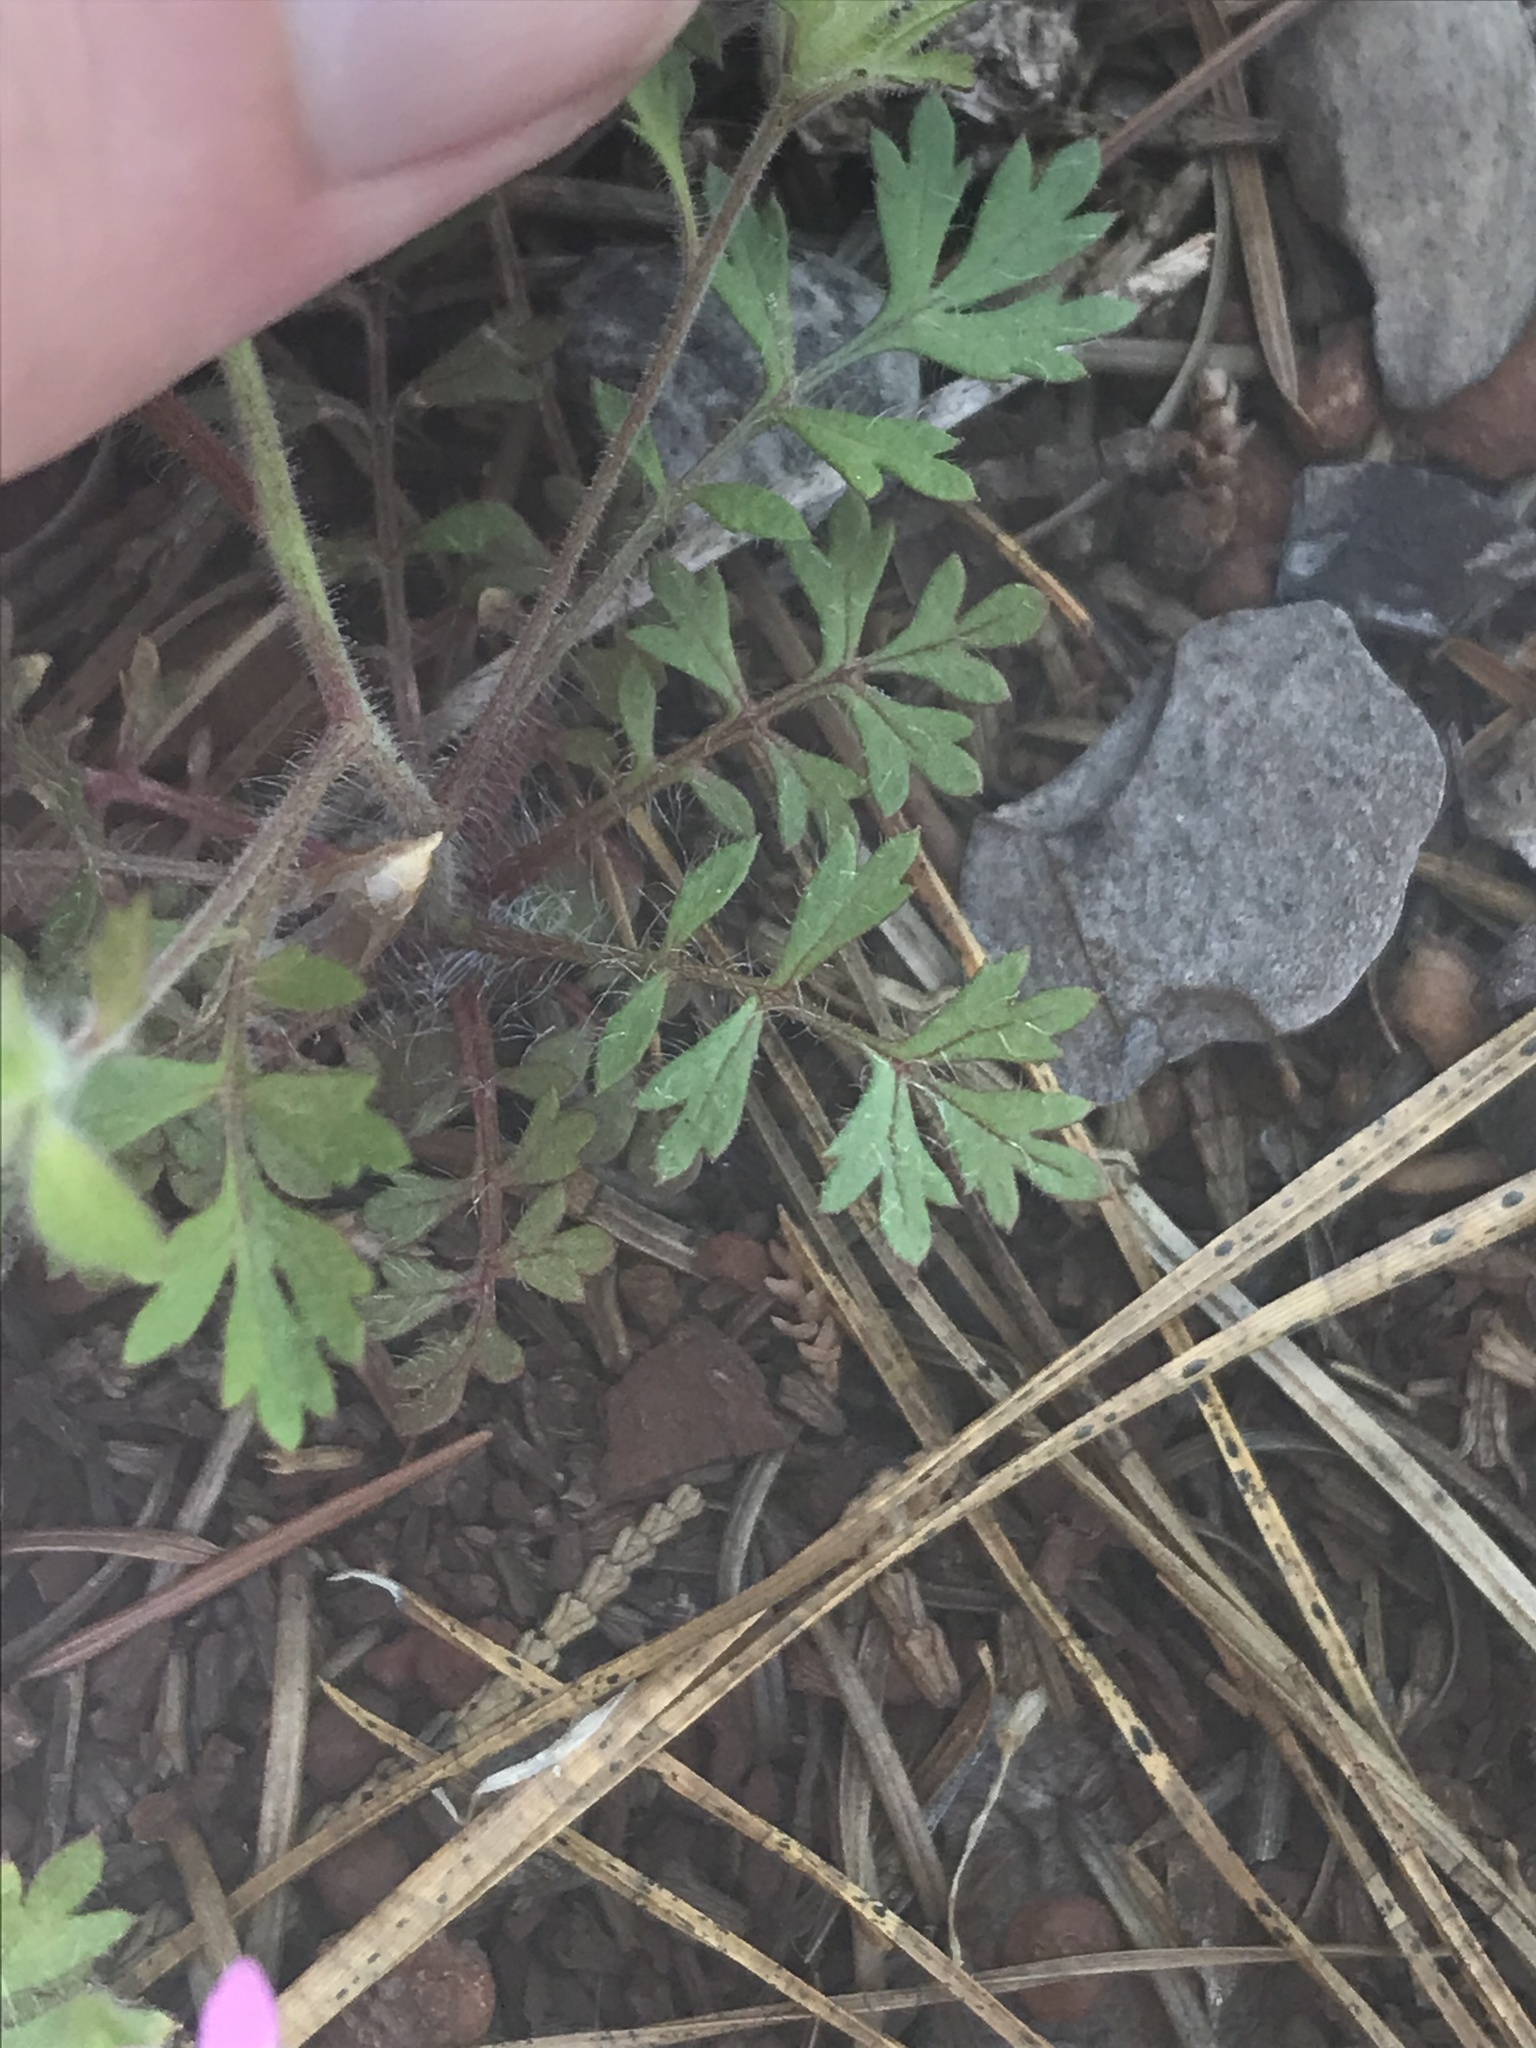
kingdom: Plantae
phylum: Tracheophyta
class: Magnoliopsida
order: Ericales
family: Polemoniaceae
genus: Collomia
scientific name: Collomia heterophylla
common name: Variable-leaved collomia
